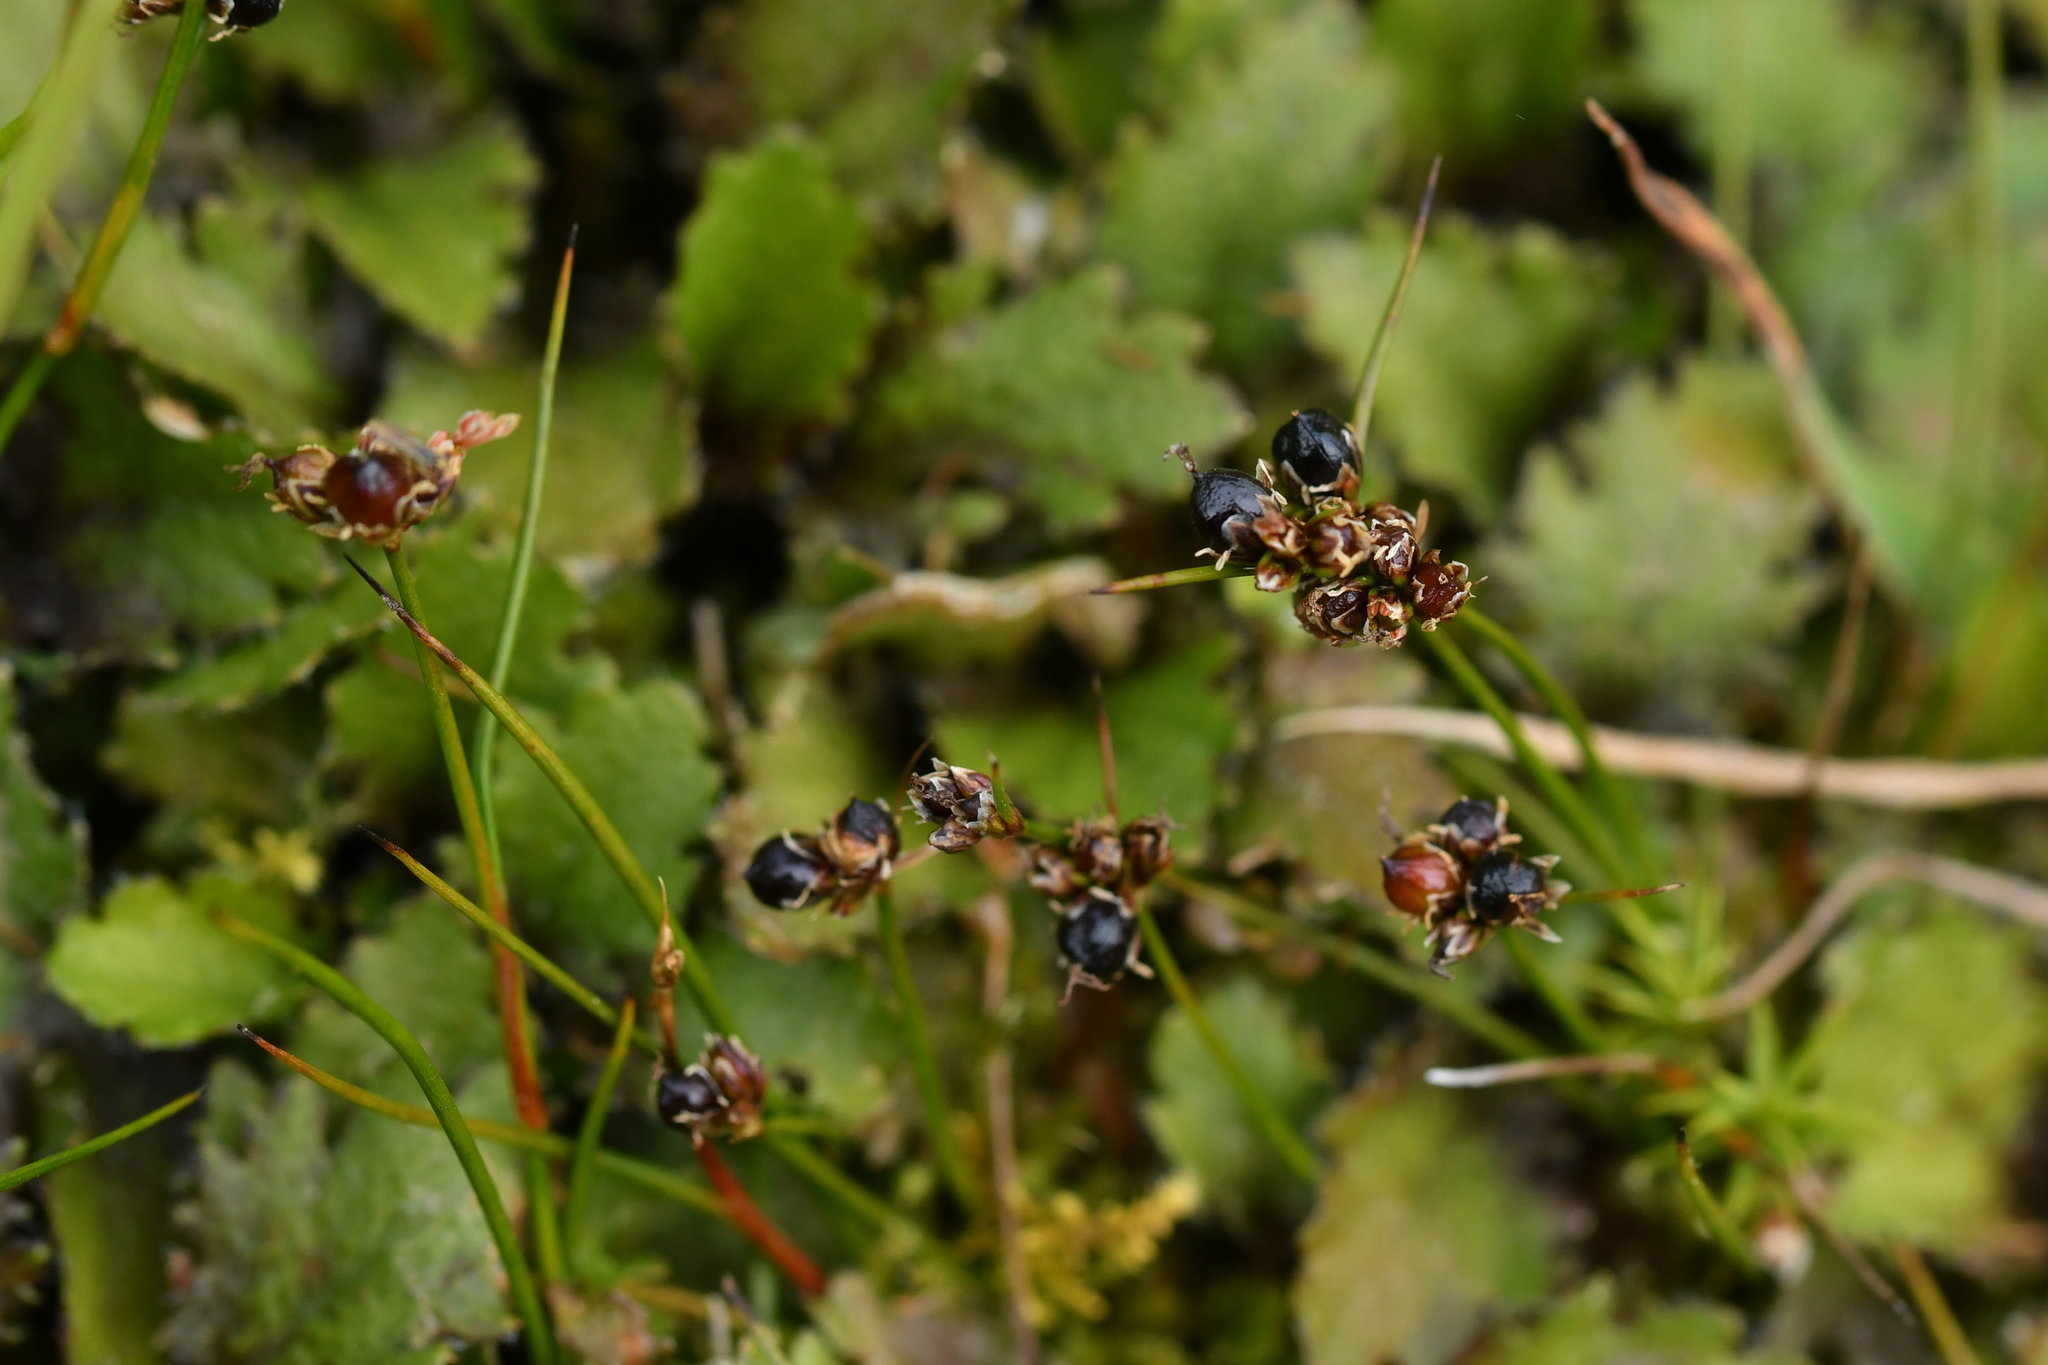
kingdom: Plantae
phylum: Tracheophyta
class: Liliopsida
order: Poales
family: Juncaceae
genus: Juncus
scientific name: Juncus novae-zelandiae
